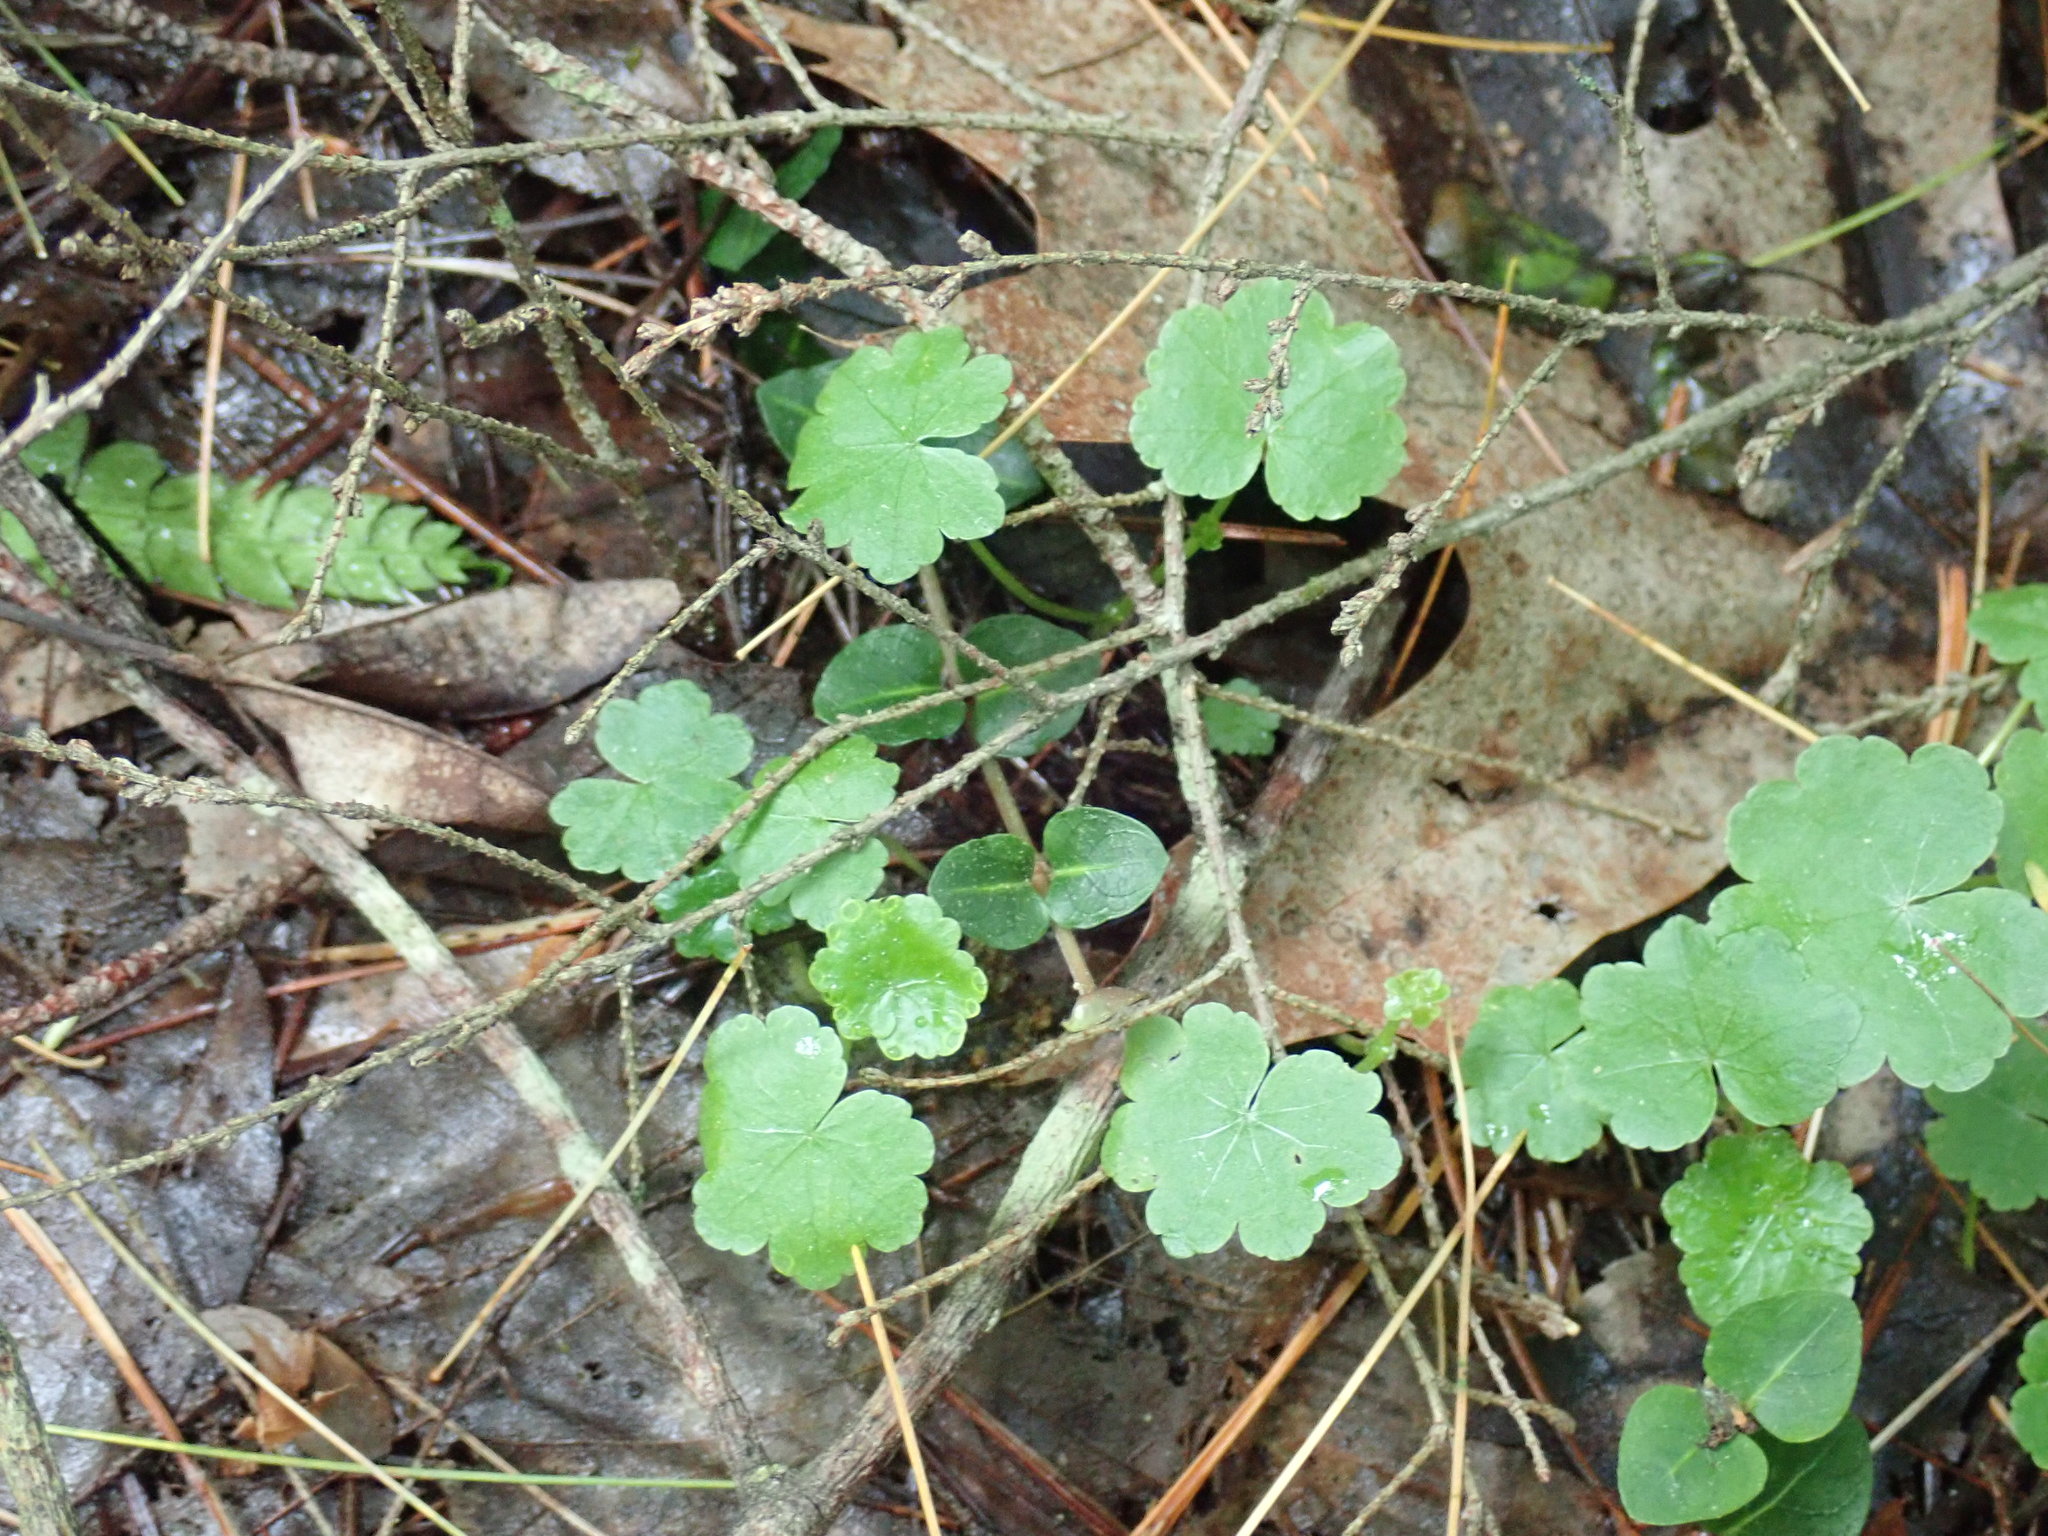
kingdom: Plantae
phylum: Tracheophyta
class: Magnoliopsida
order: Apiales
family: Araliaceae
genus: Hydrocotyle
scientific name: Hydrocotyle americana
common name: American water-pennywort
